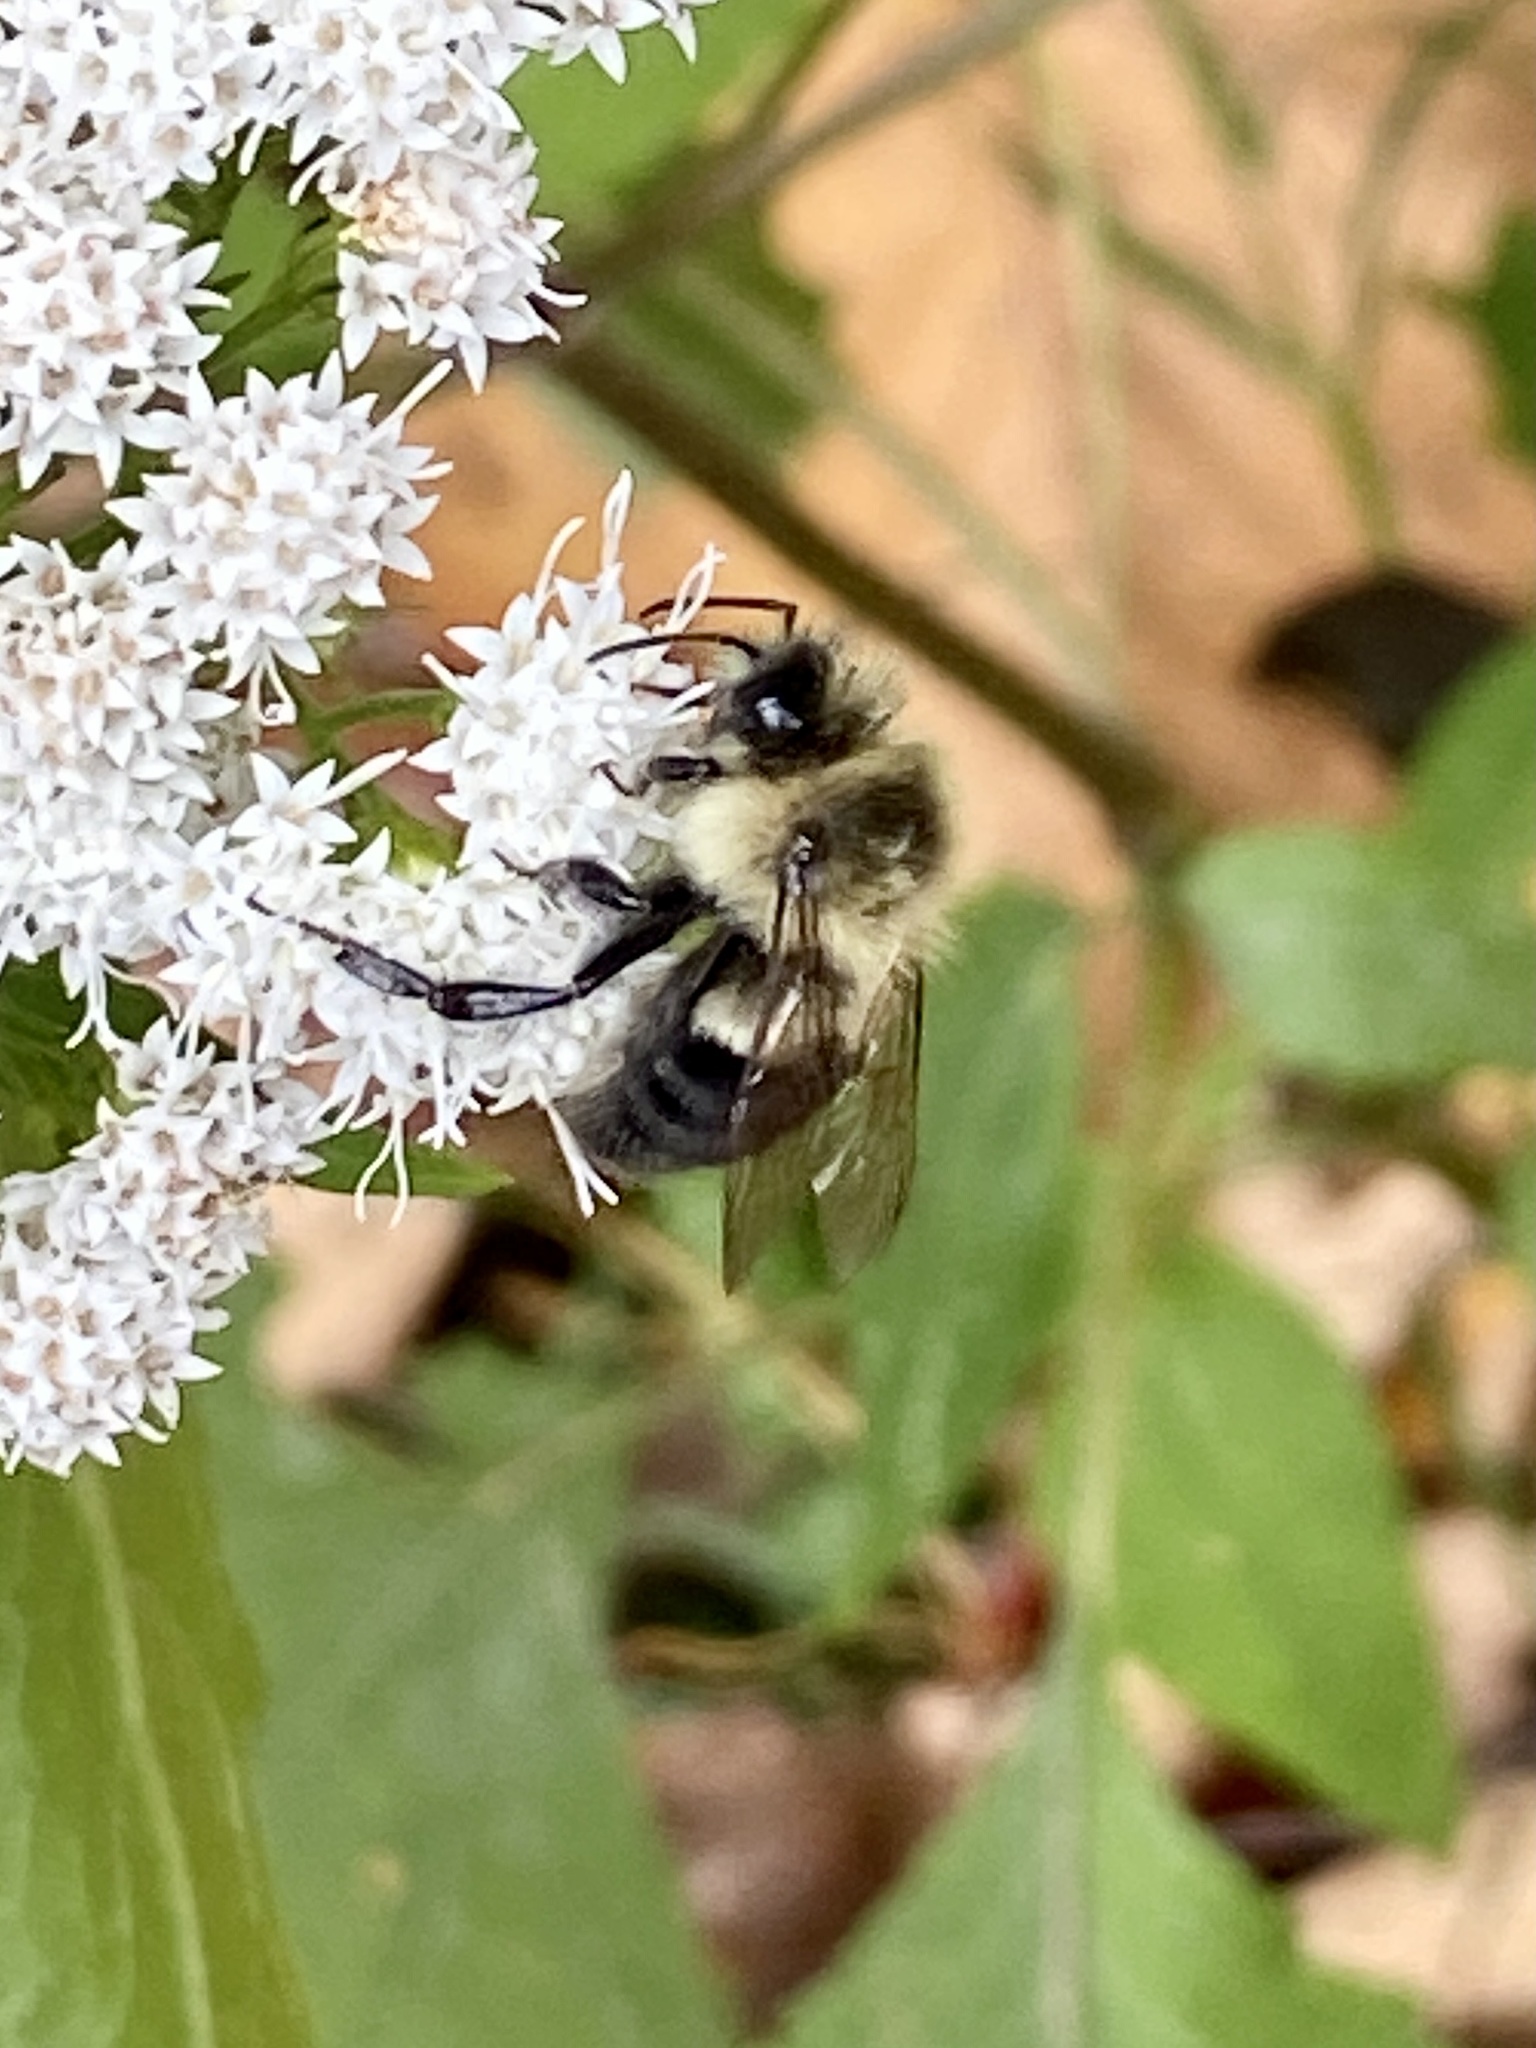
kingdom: Animalia
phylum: Arthropoda
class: Insecta
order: Hymenoptera
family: Apidae
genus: Bombus
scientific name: Bombus impatiens
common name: Common eastern bumble bee
